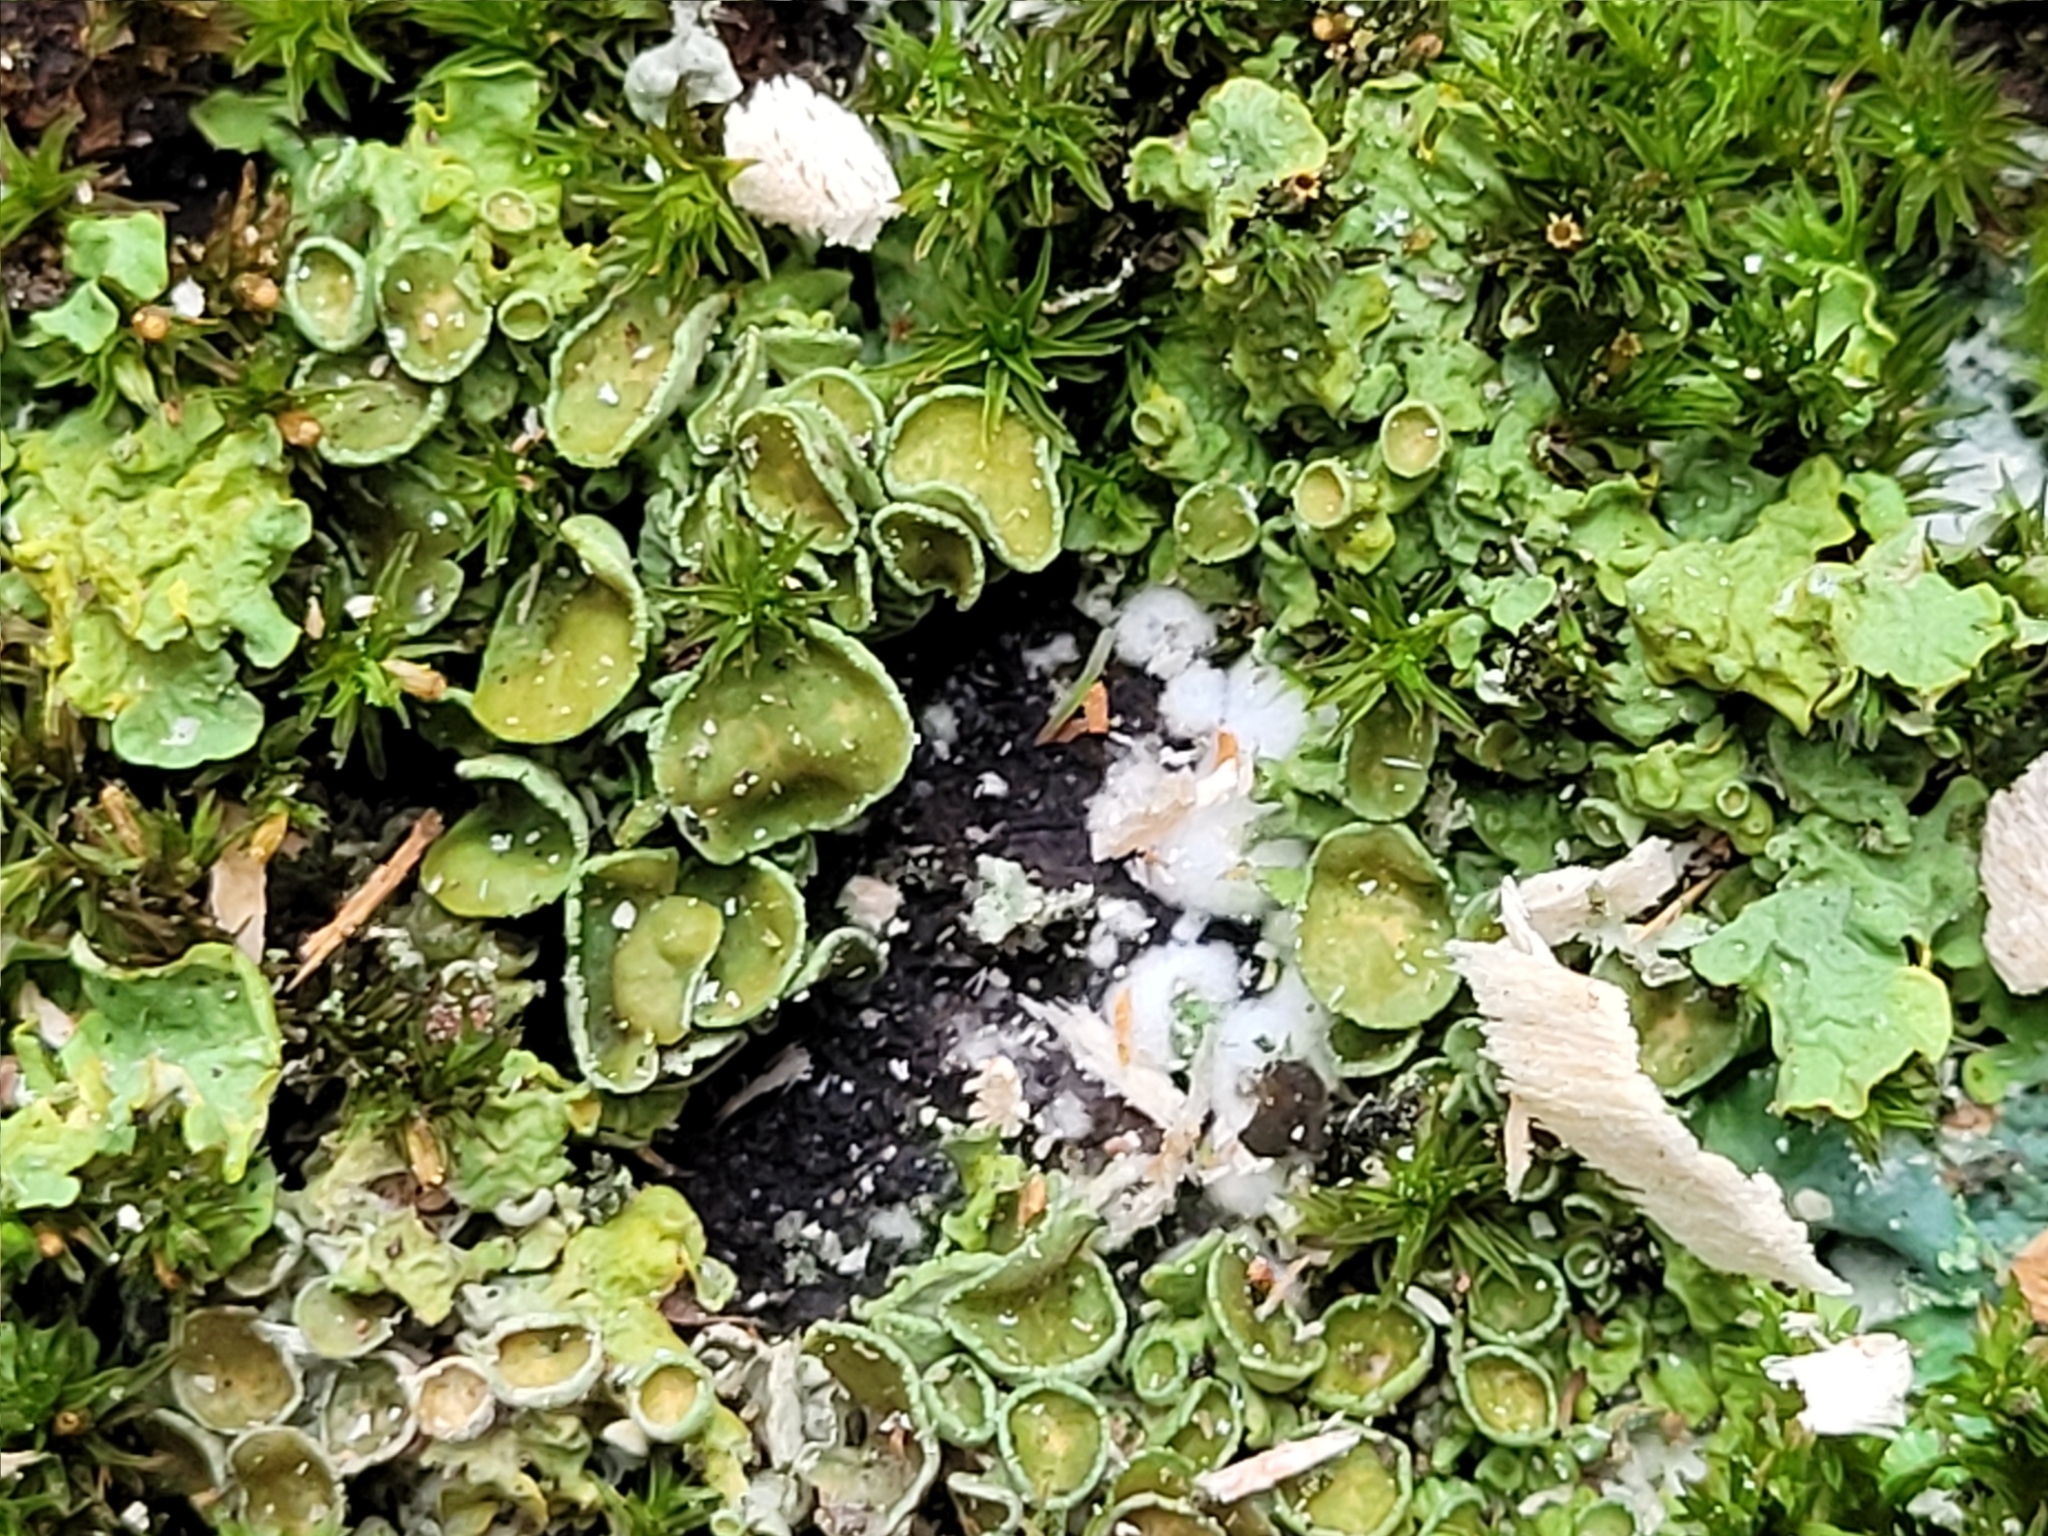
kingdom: Fungi
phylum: Ascomycota
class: Lecanoromycetes
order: Teloschistales
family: Teloschistaceae
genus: Xanthoria
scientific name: Xanthoria parietina
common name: Common orange lichen
